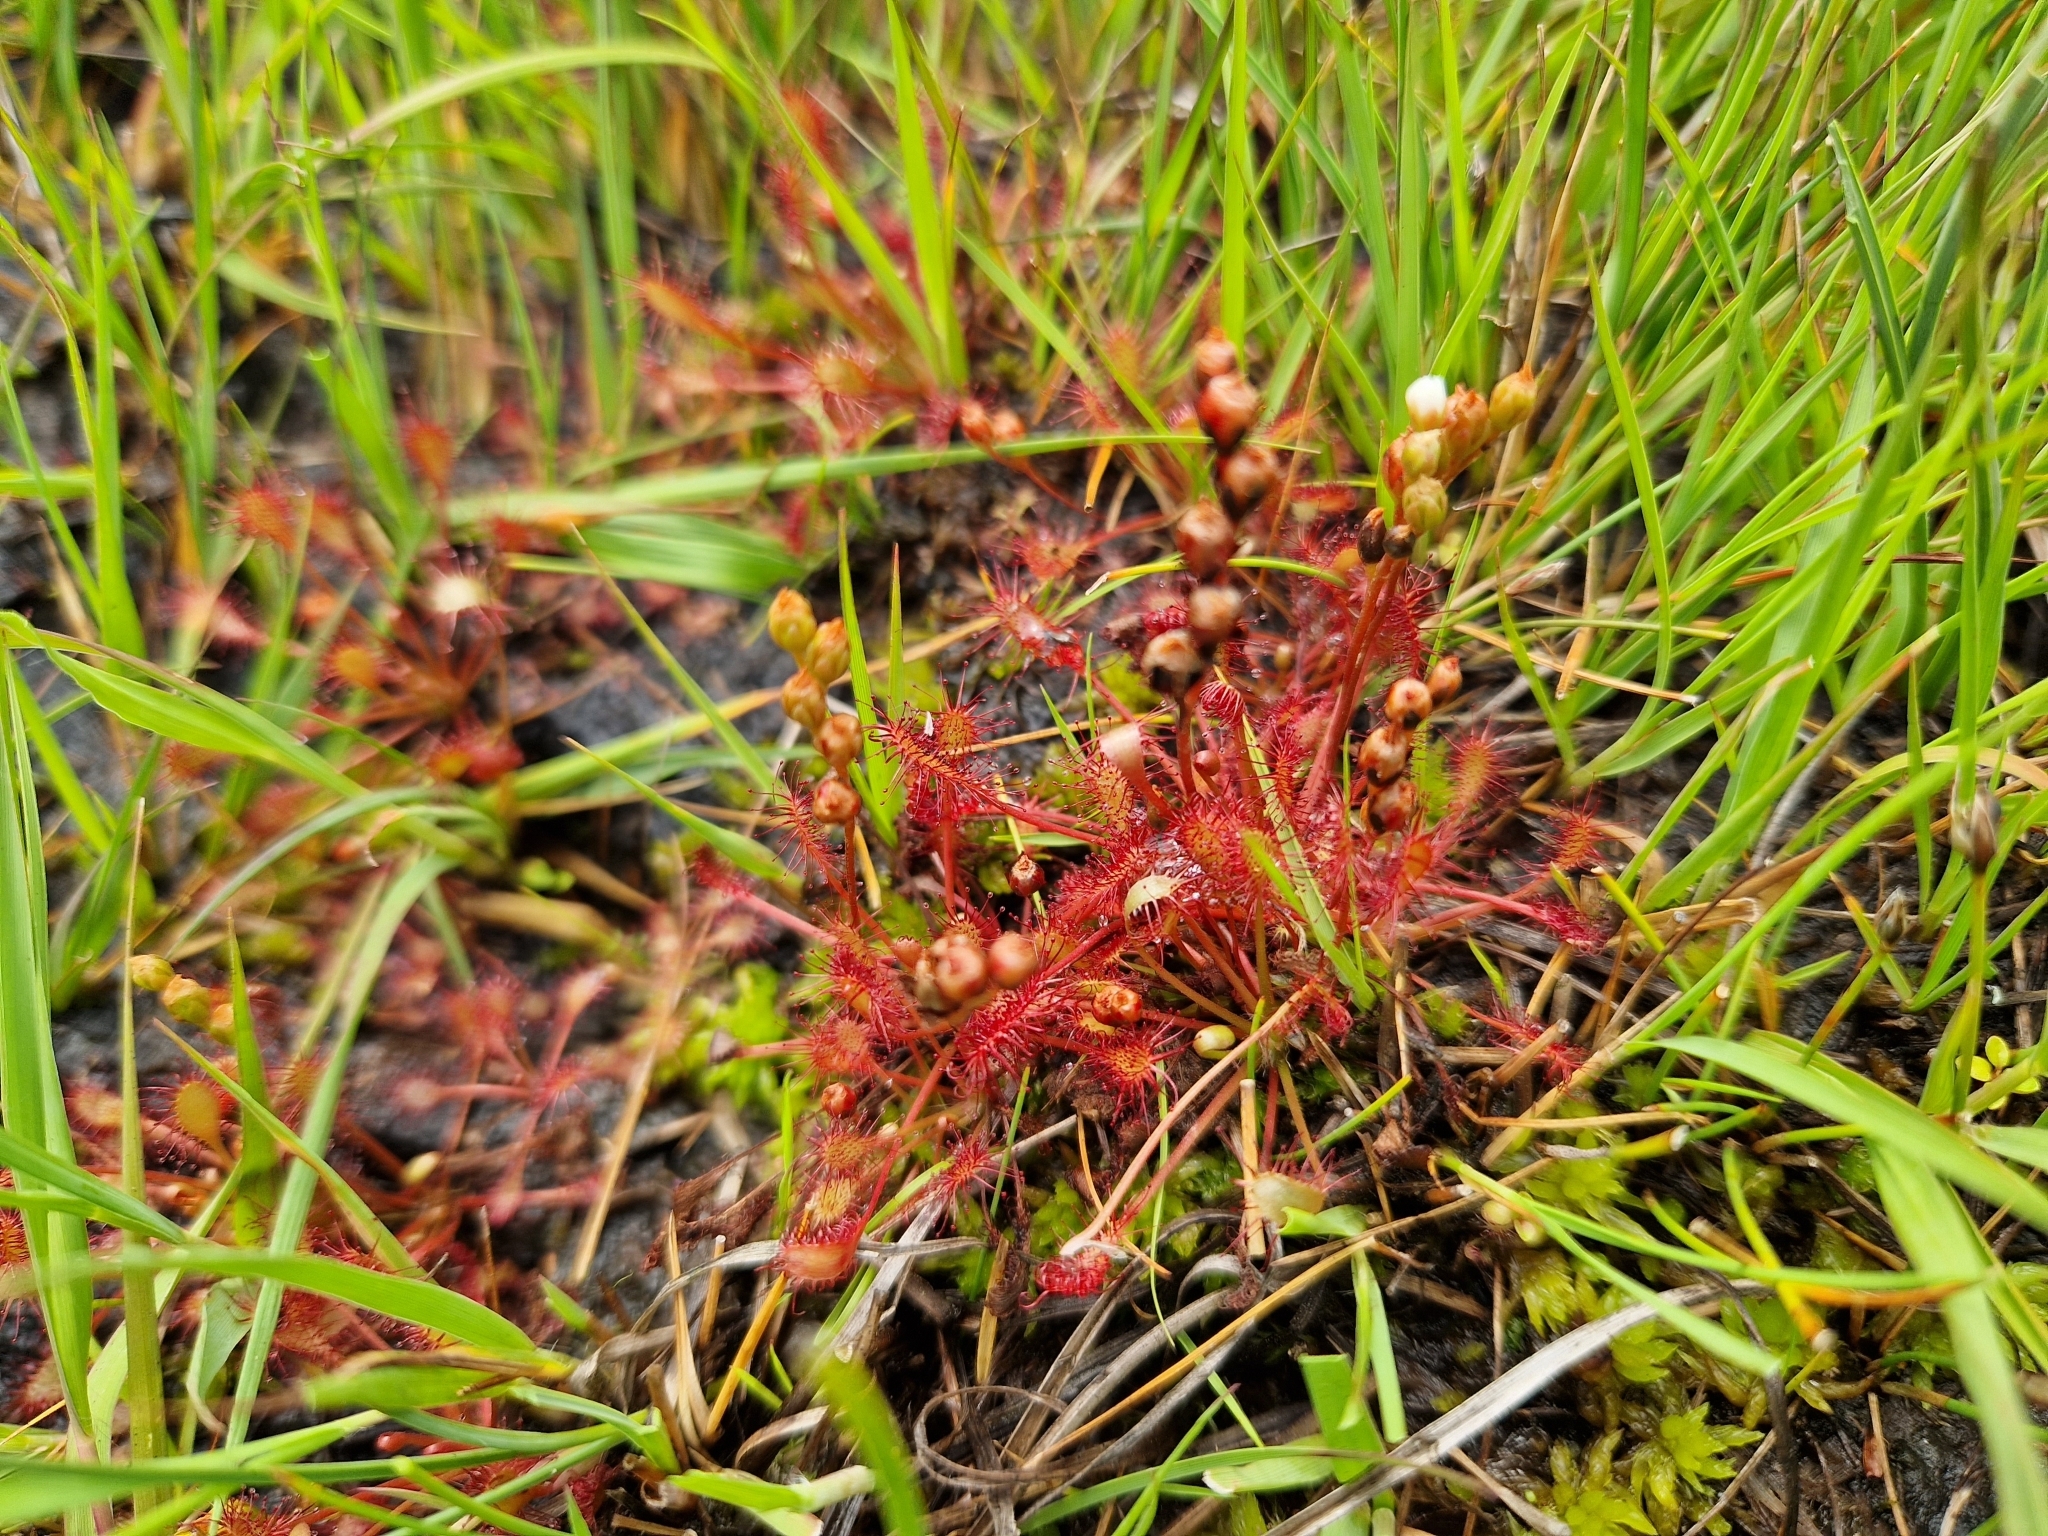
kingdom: Plantae
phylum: Tracheophyta
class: Magnoliopsida
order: Caryophyllales
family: Droseraceae
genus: Drosera
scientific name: Drosera intermedia
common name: Oblong-leaved sundew
